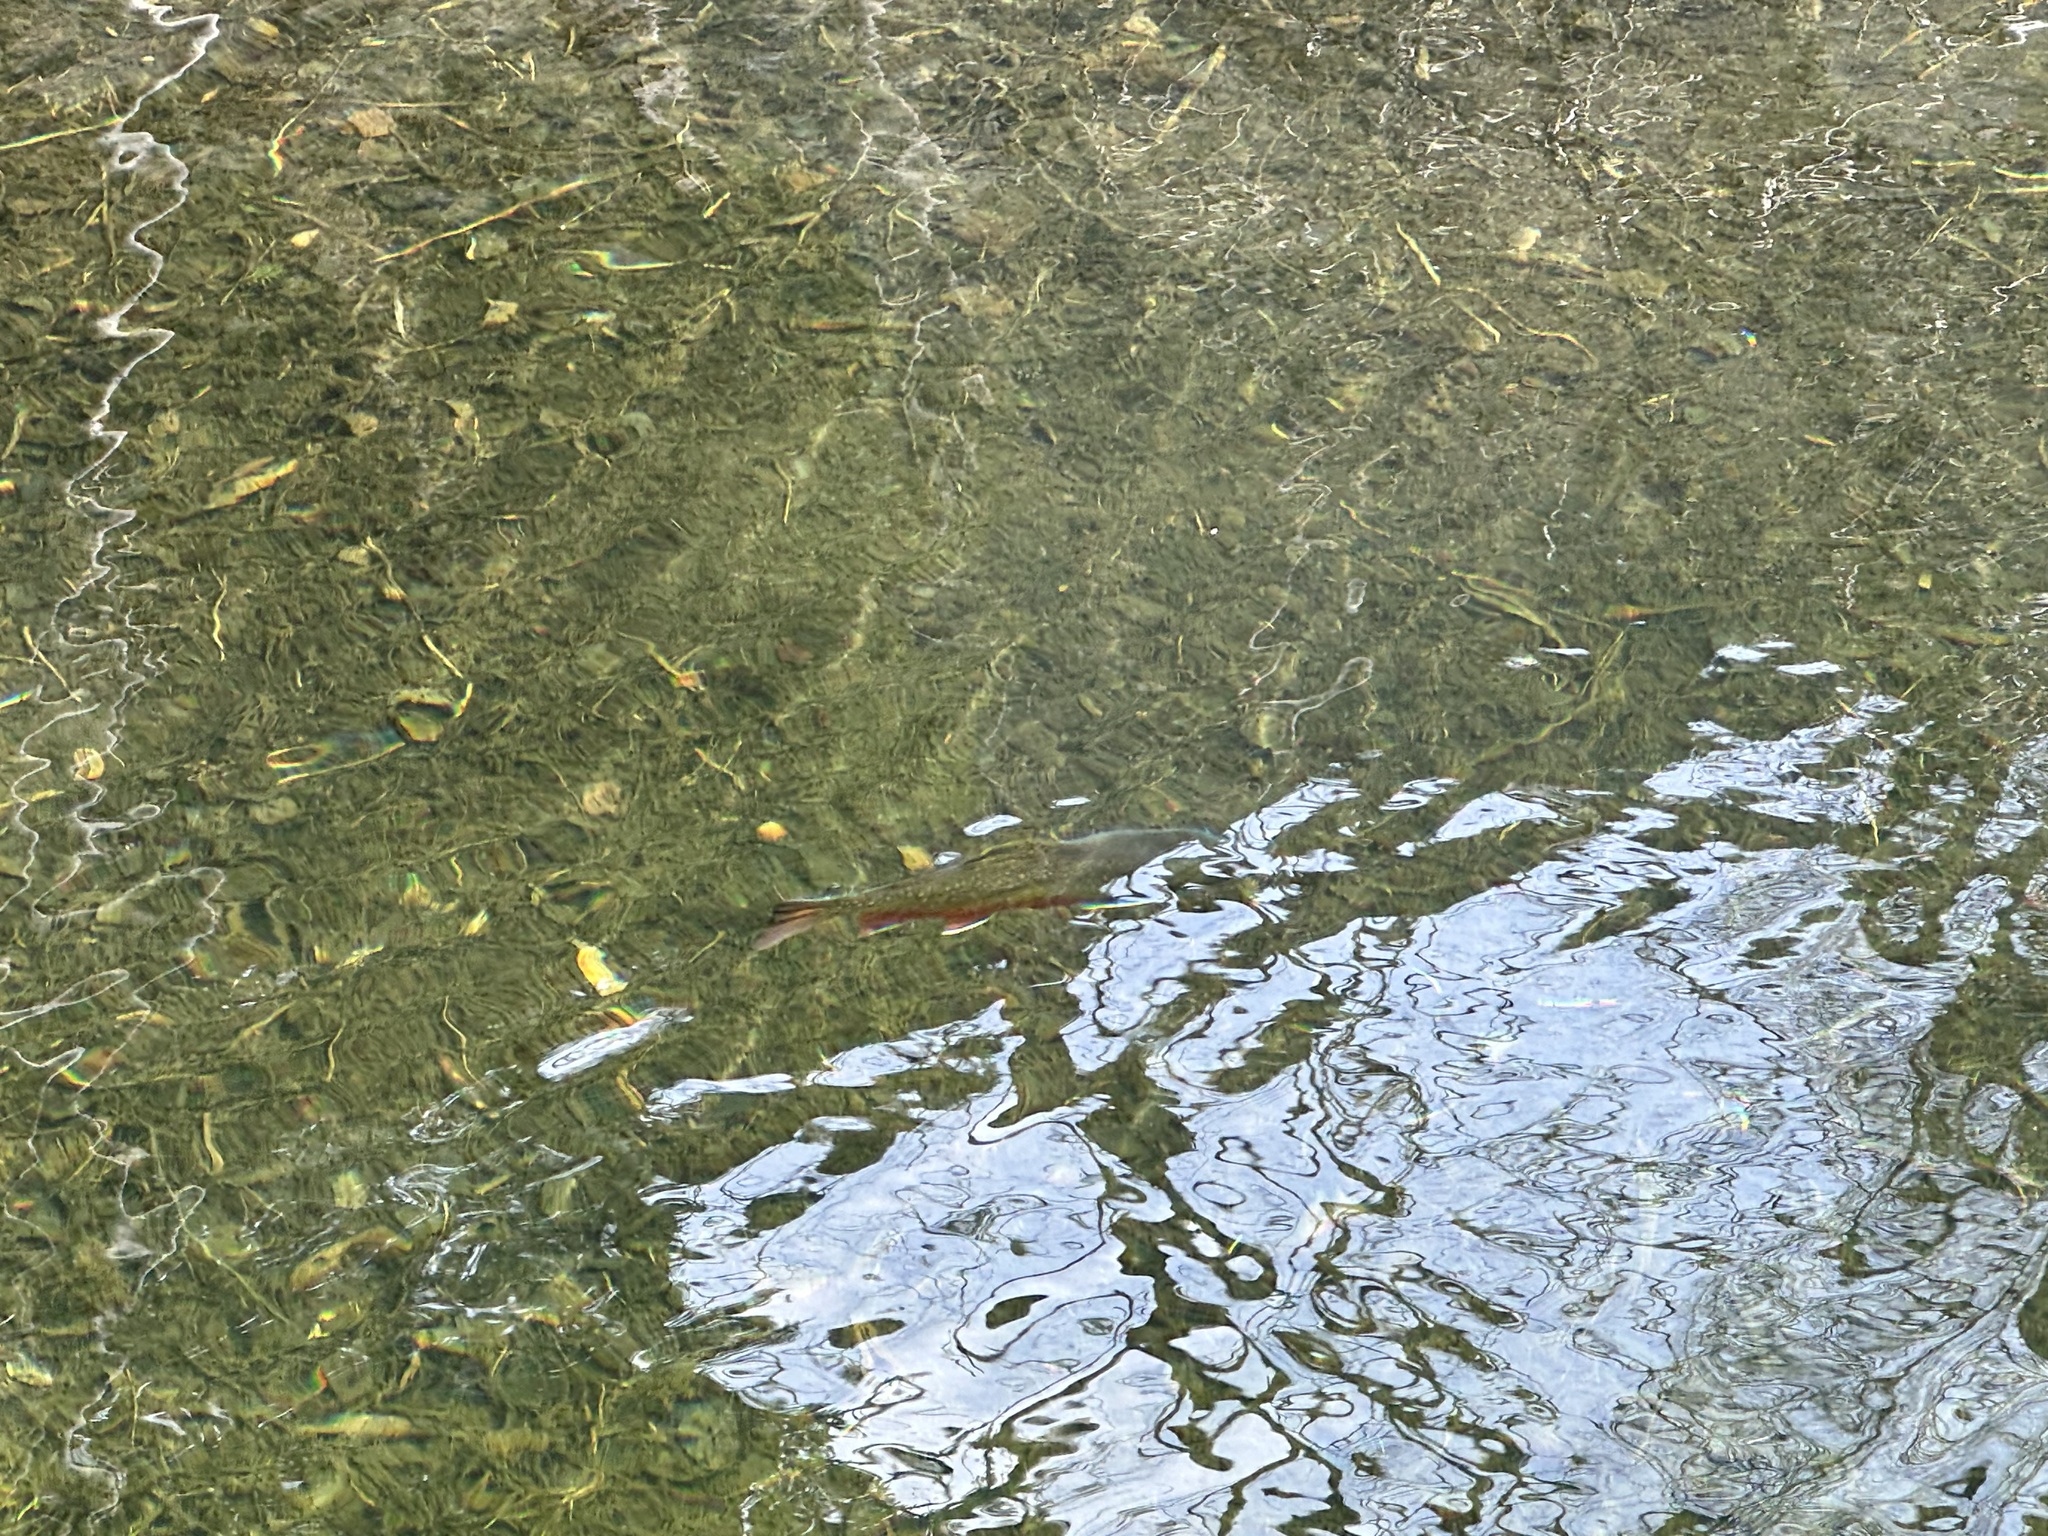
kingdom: Animalia
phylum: Chordata
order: Salmoniformes
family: Salmonidae
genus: Salvelinus
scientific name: Salvelinus fontinalis
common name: Brook trout
